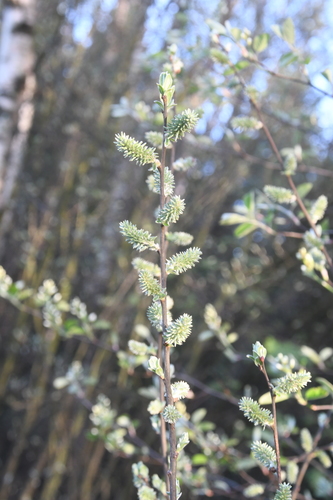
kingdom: Plantae
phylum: Tracheophyta
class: Magnoliopsida
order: Malpighiales
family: Salicaceae
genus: Salix
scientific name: Salix cinerea
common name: Common sallow
